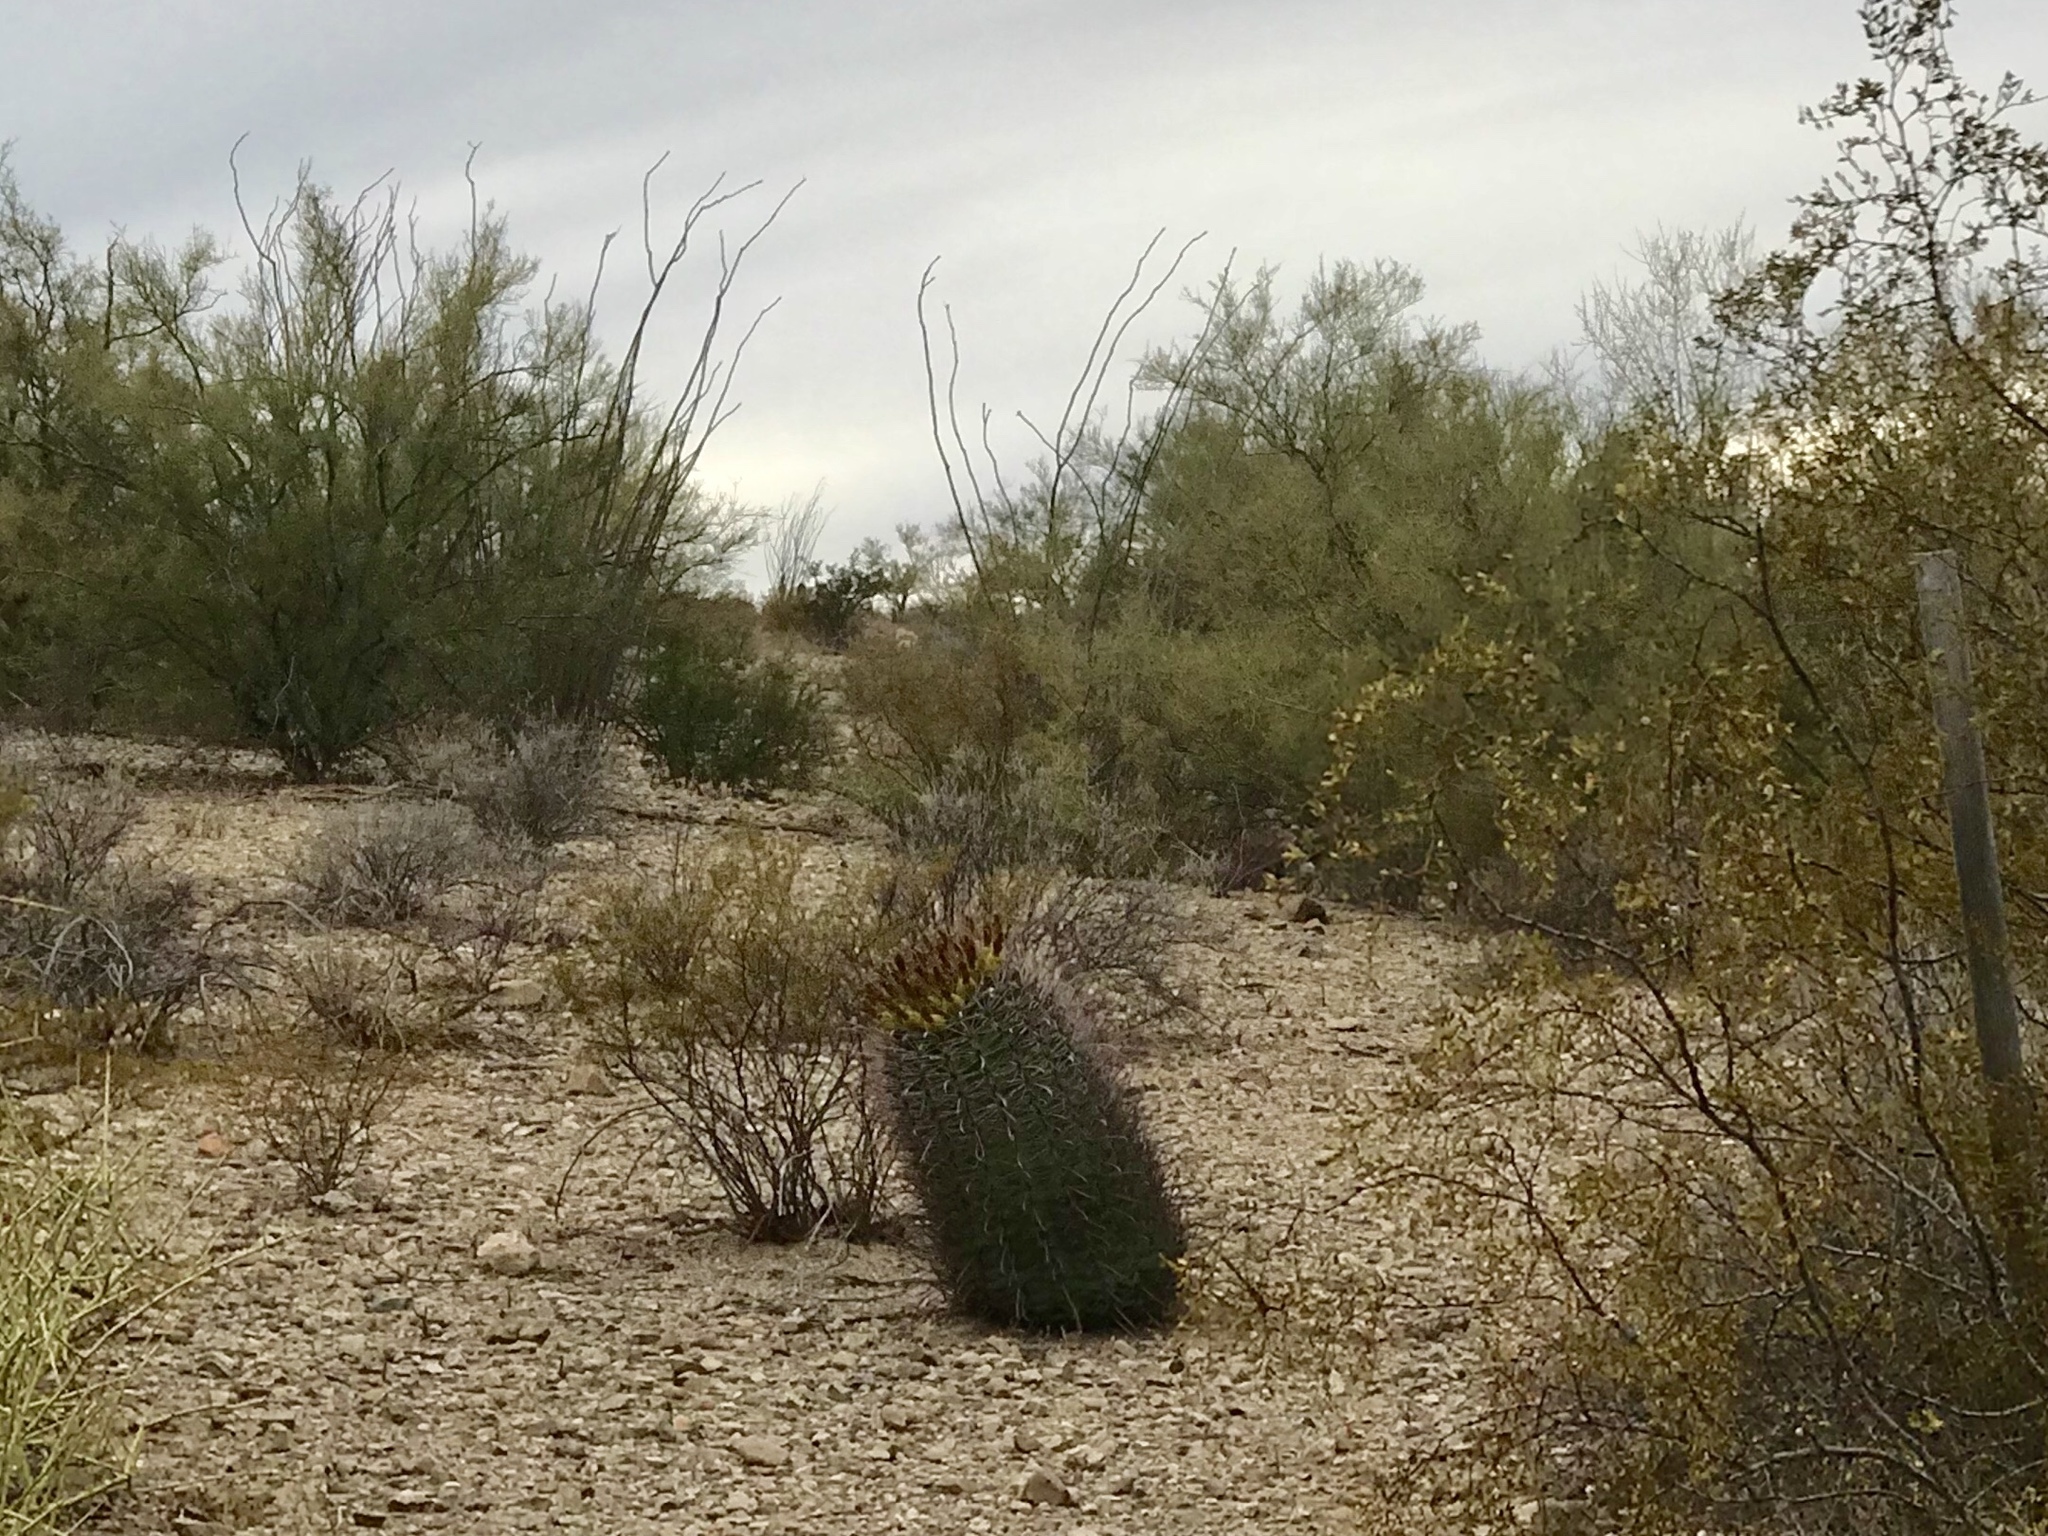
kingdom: Plantae
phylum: Tracheophyta
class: Magnoliopsida
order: Caryophyllales
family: Cactaceae
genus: Ferocactus
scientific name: Ferocactus wislizeni
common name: Candy barrel cactus
